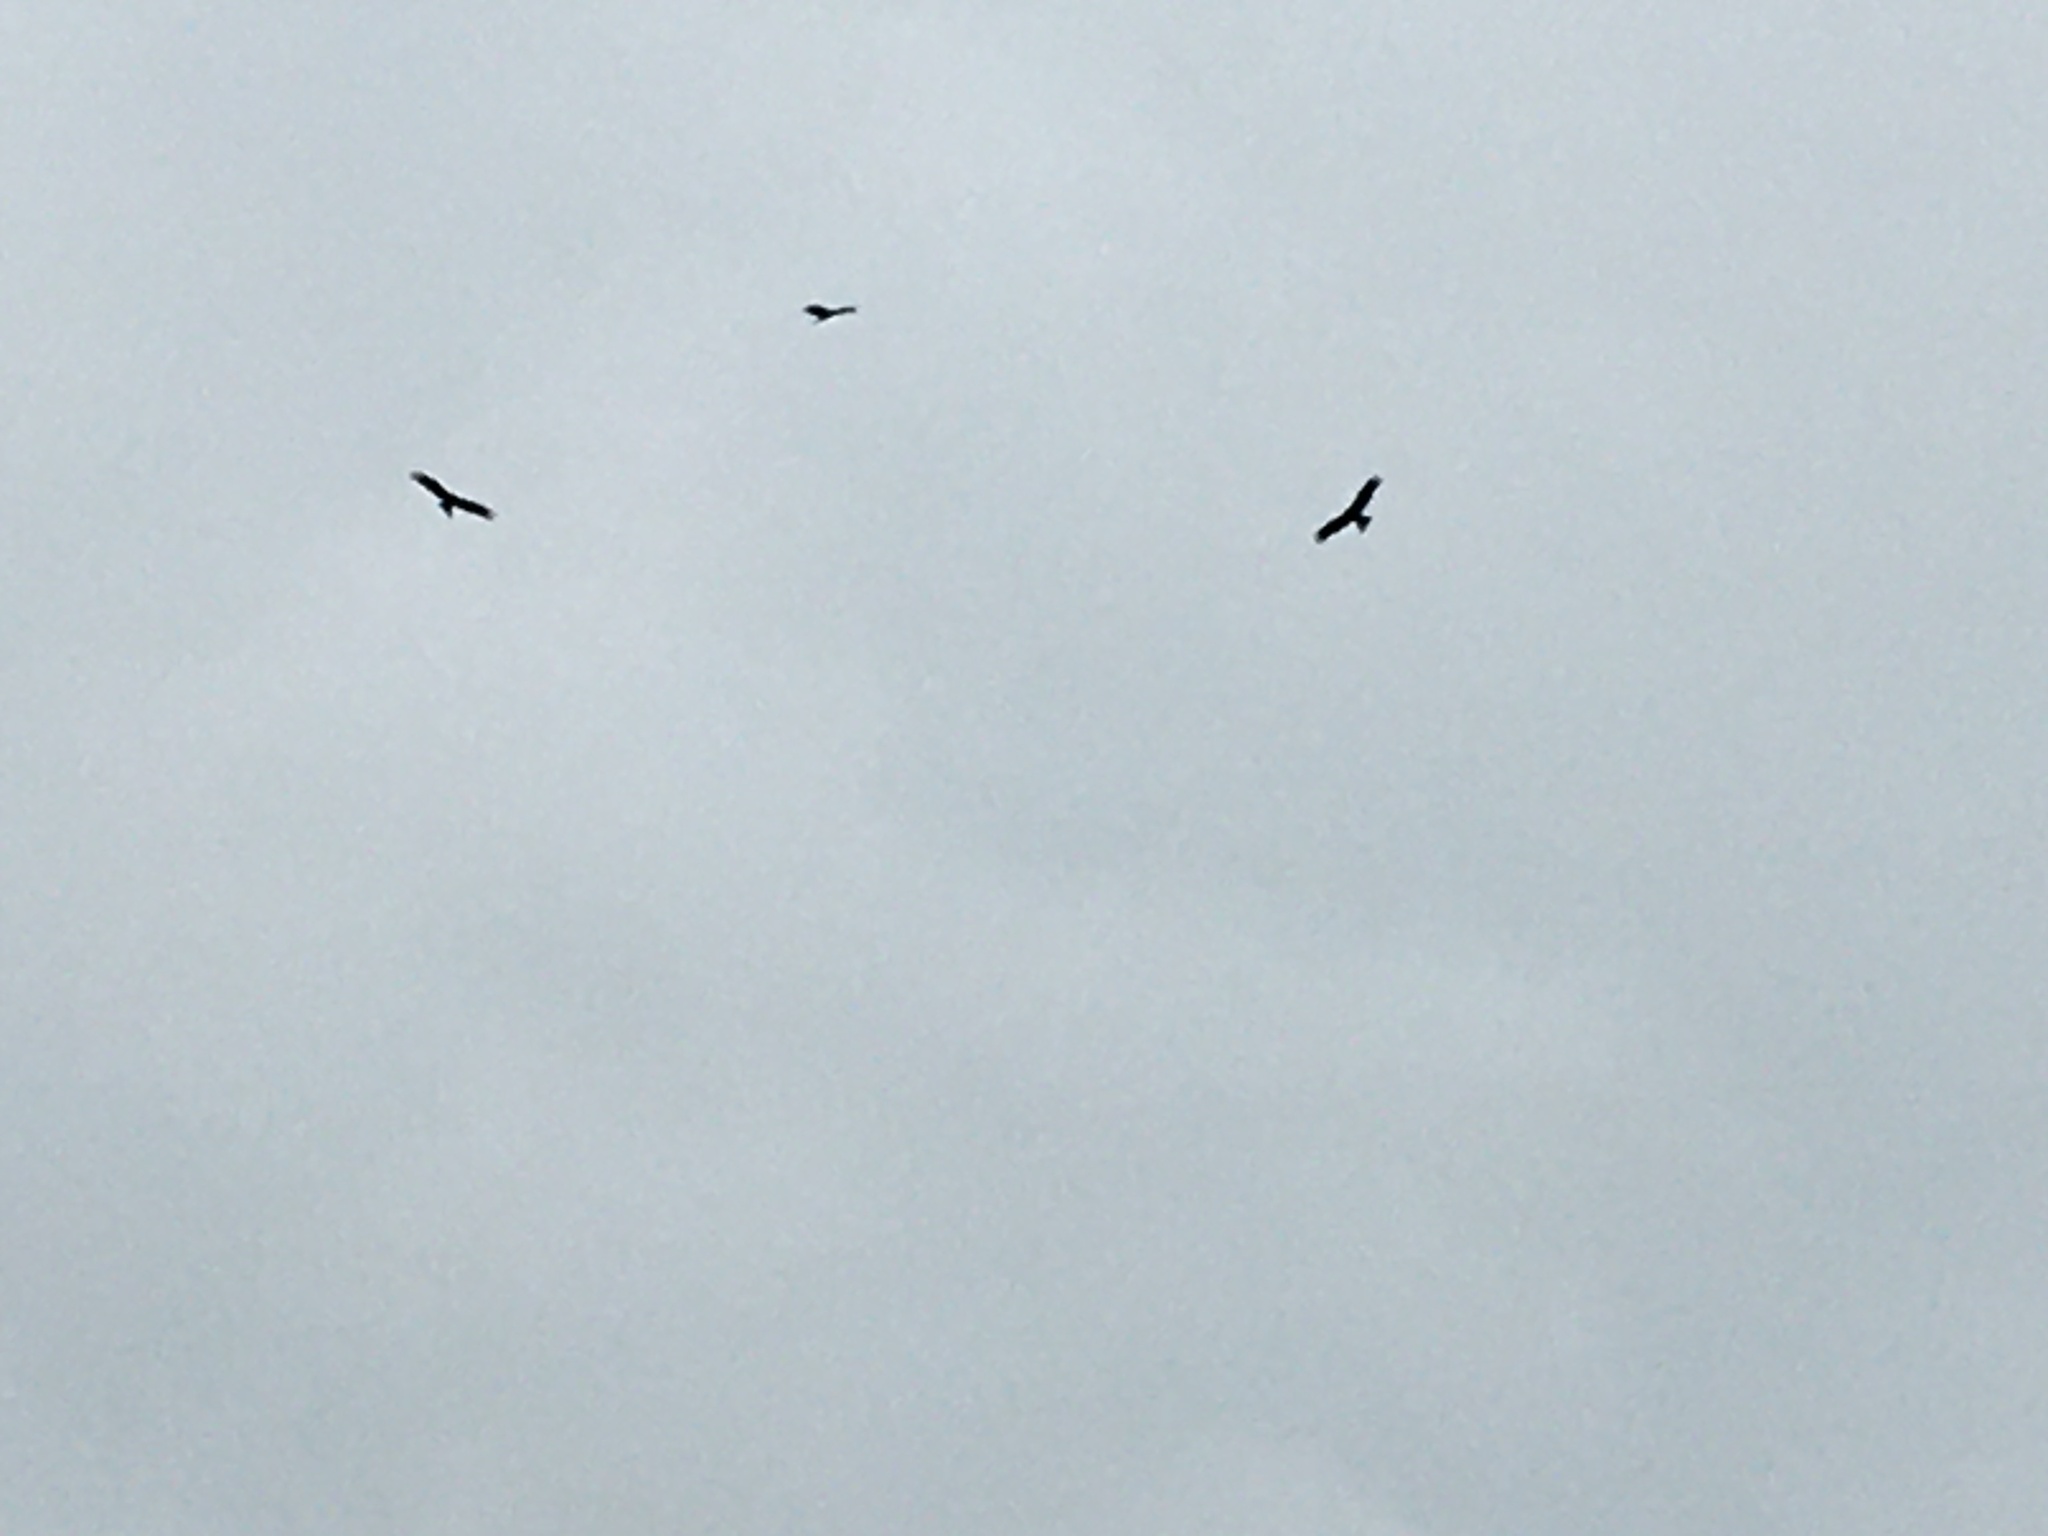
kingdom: Animalia
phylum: Chordata
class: Aves
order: Accipitriformes
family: Accipitridae
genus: Milvus
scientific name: Milvus migrans
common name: Black kite
